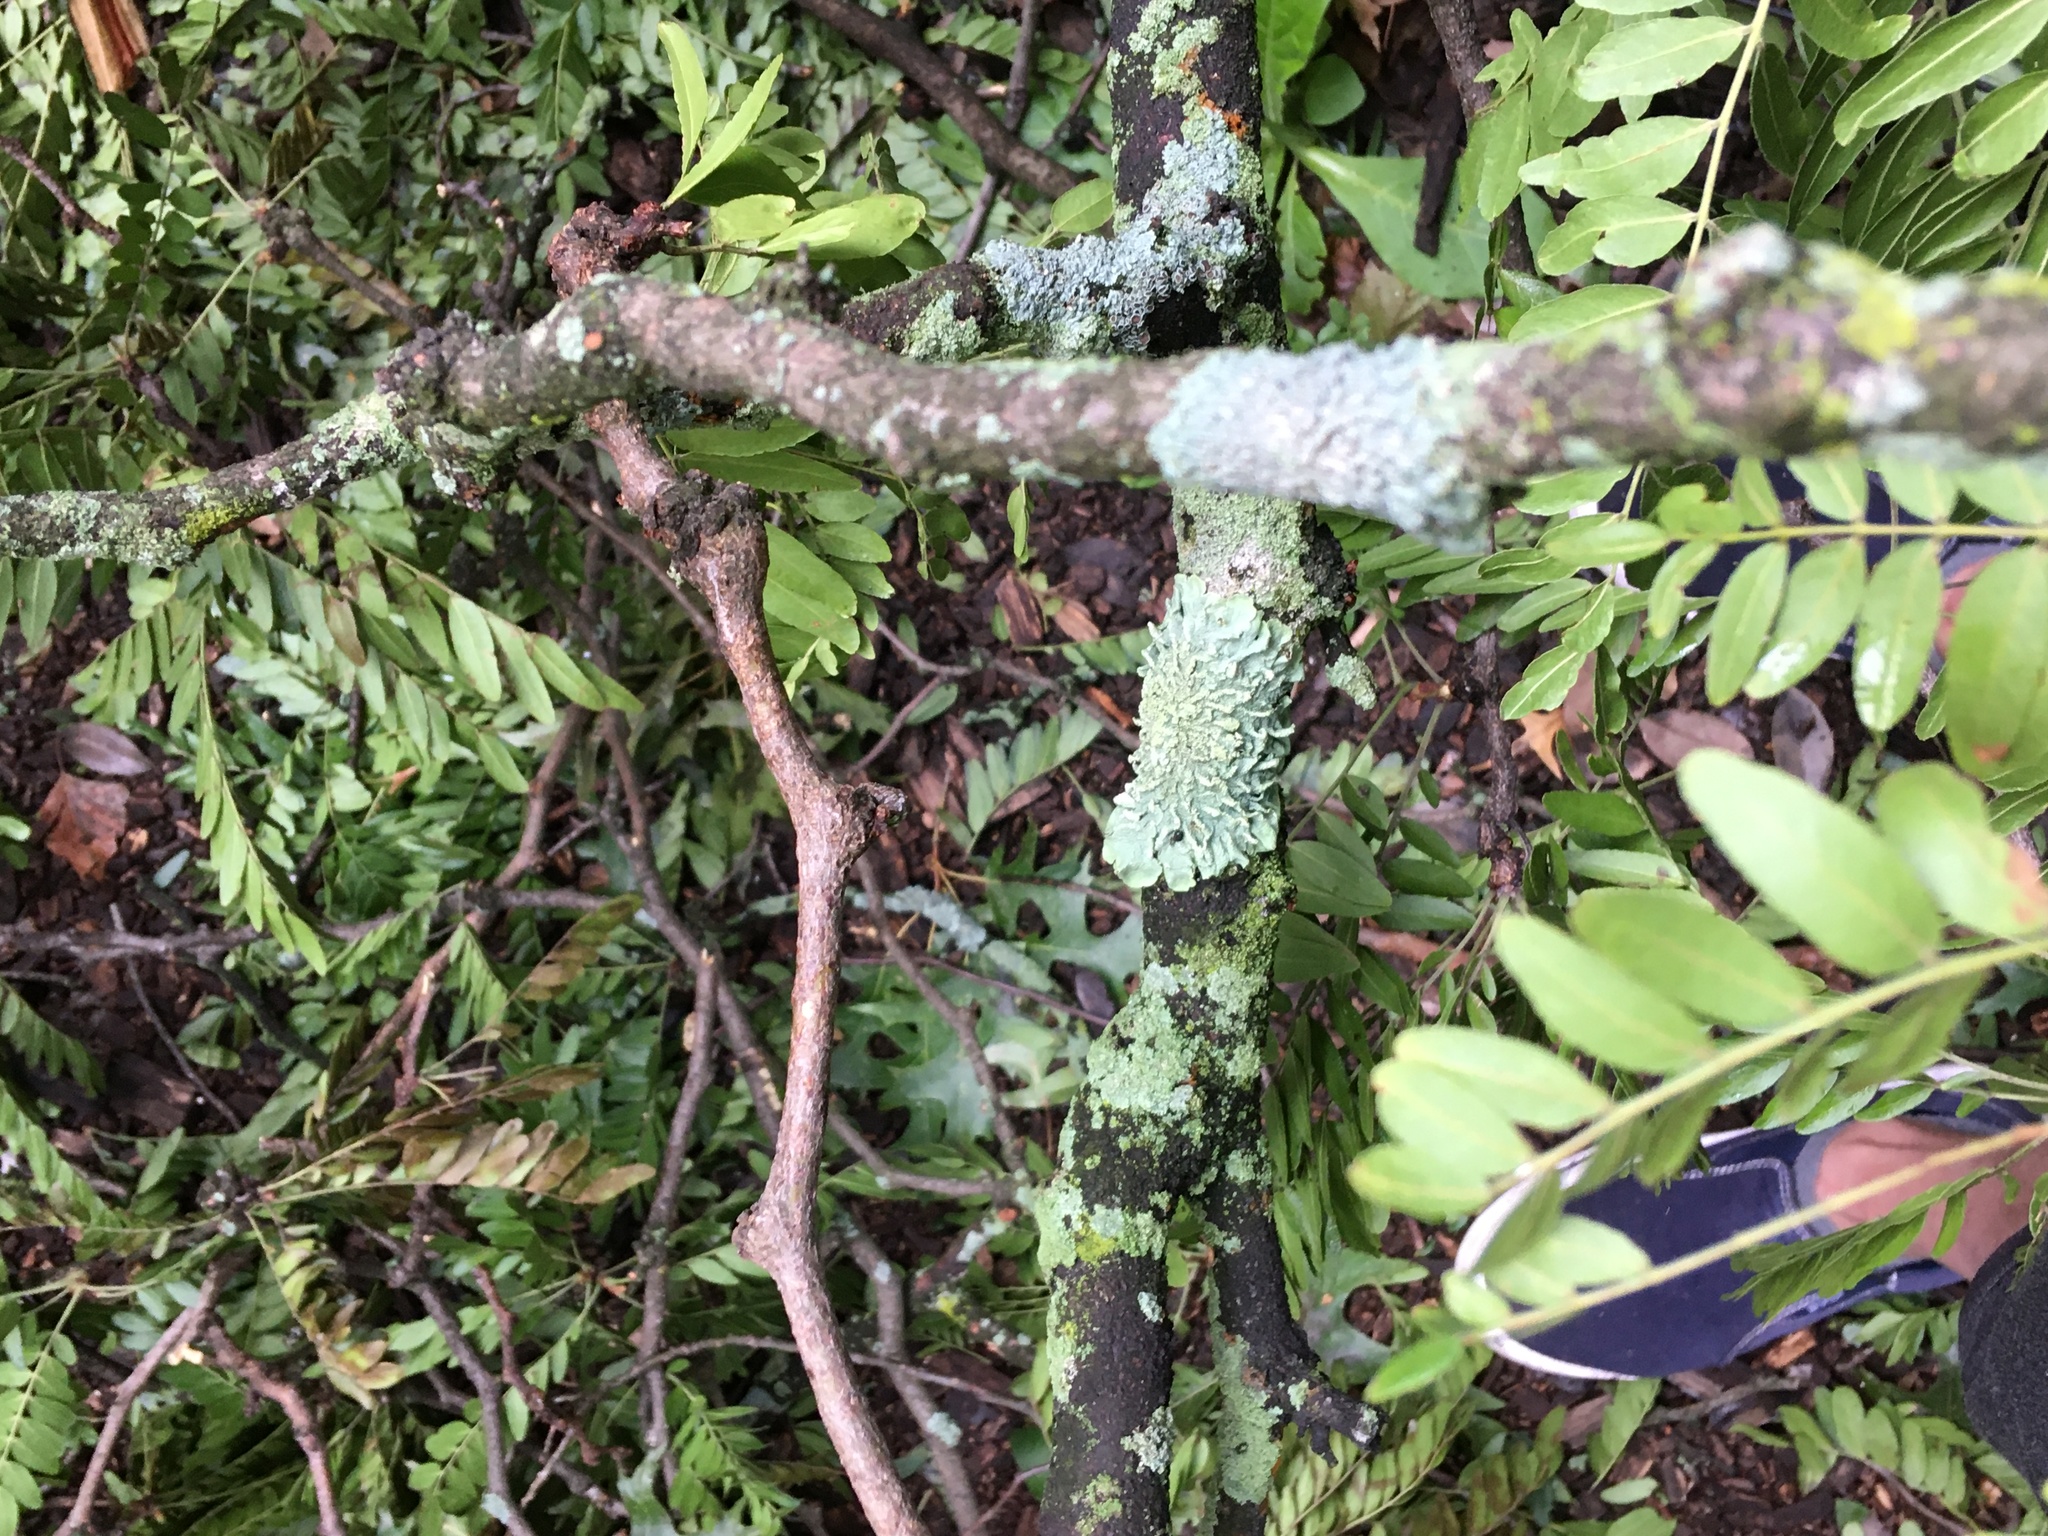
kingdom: Fungi
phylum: Ascomycota
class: Lecanoromycetes
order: Lecanorales
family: Parmeliaceae
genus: Flavoparmelia
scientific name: Flavoparmelia caperata
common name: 40-mile per hour lichen
